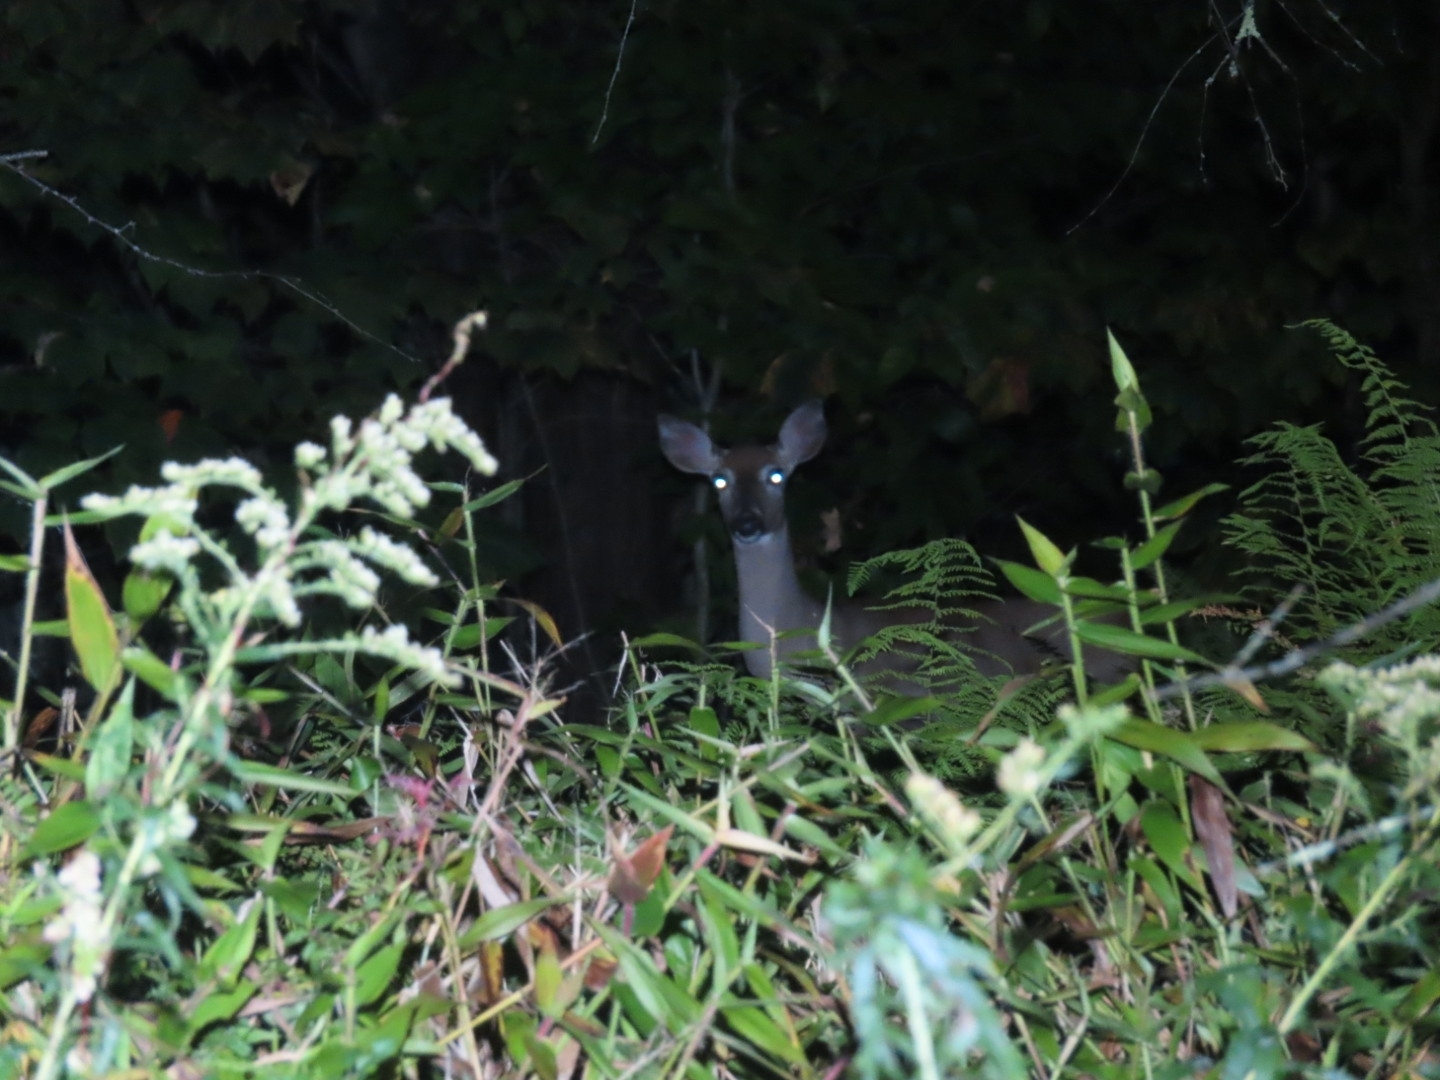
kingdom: Animalia
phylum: Chordata
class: Mammalia
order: Artiodactyla
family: Cervidae
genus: Odocoileus
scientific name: Odocoileus virginianus
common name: White-tailed deer
